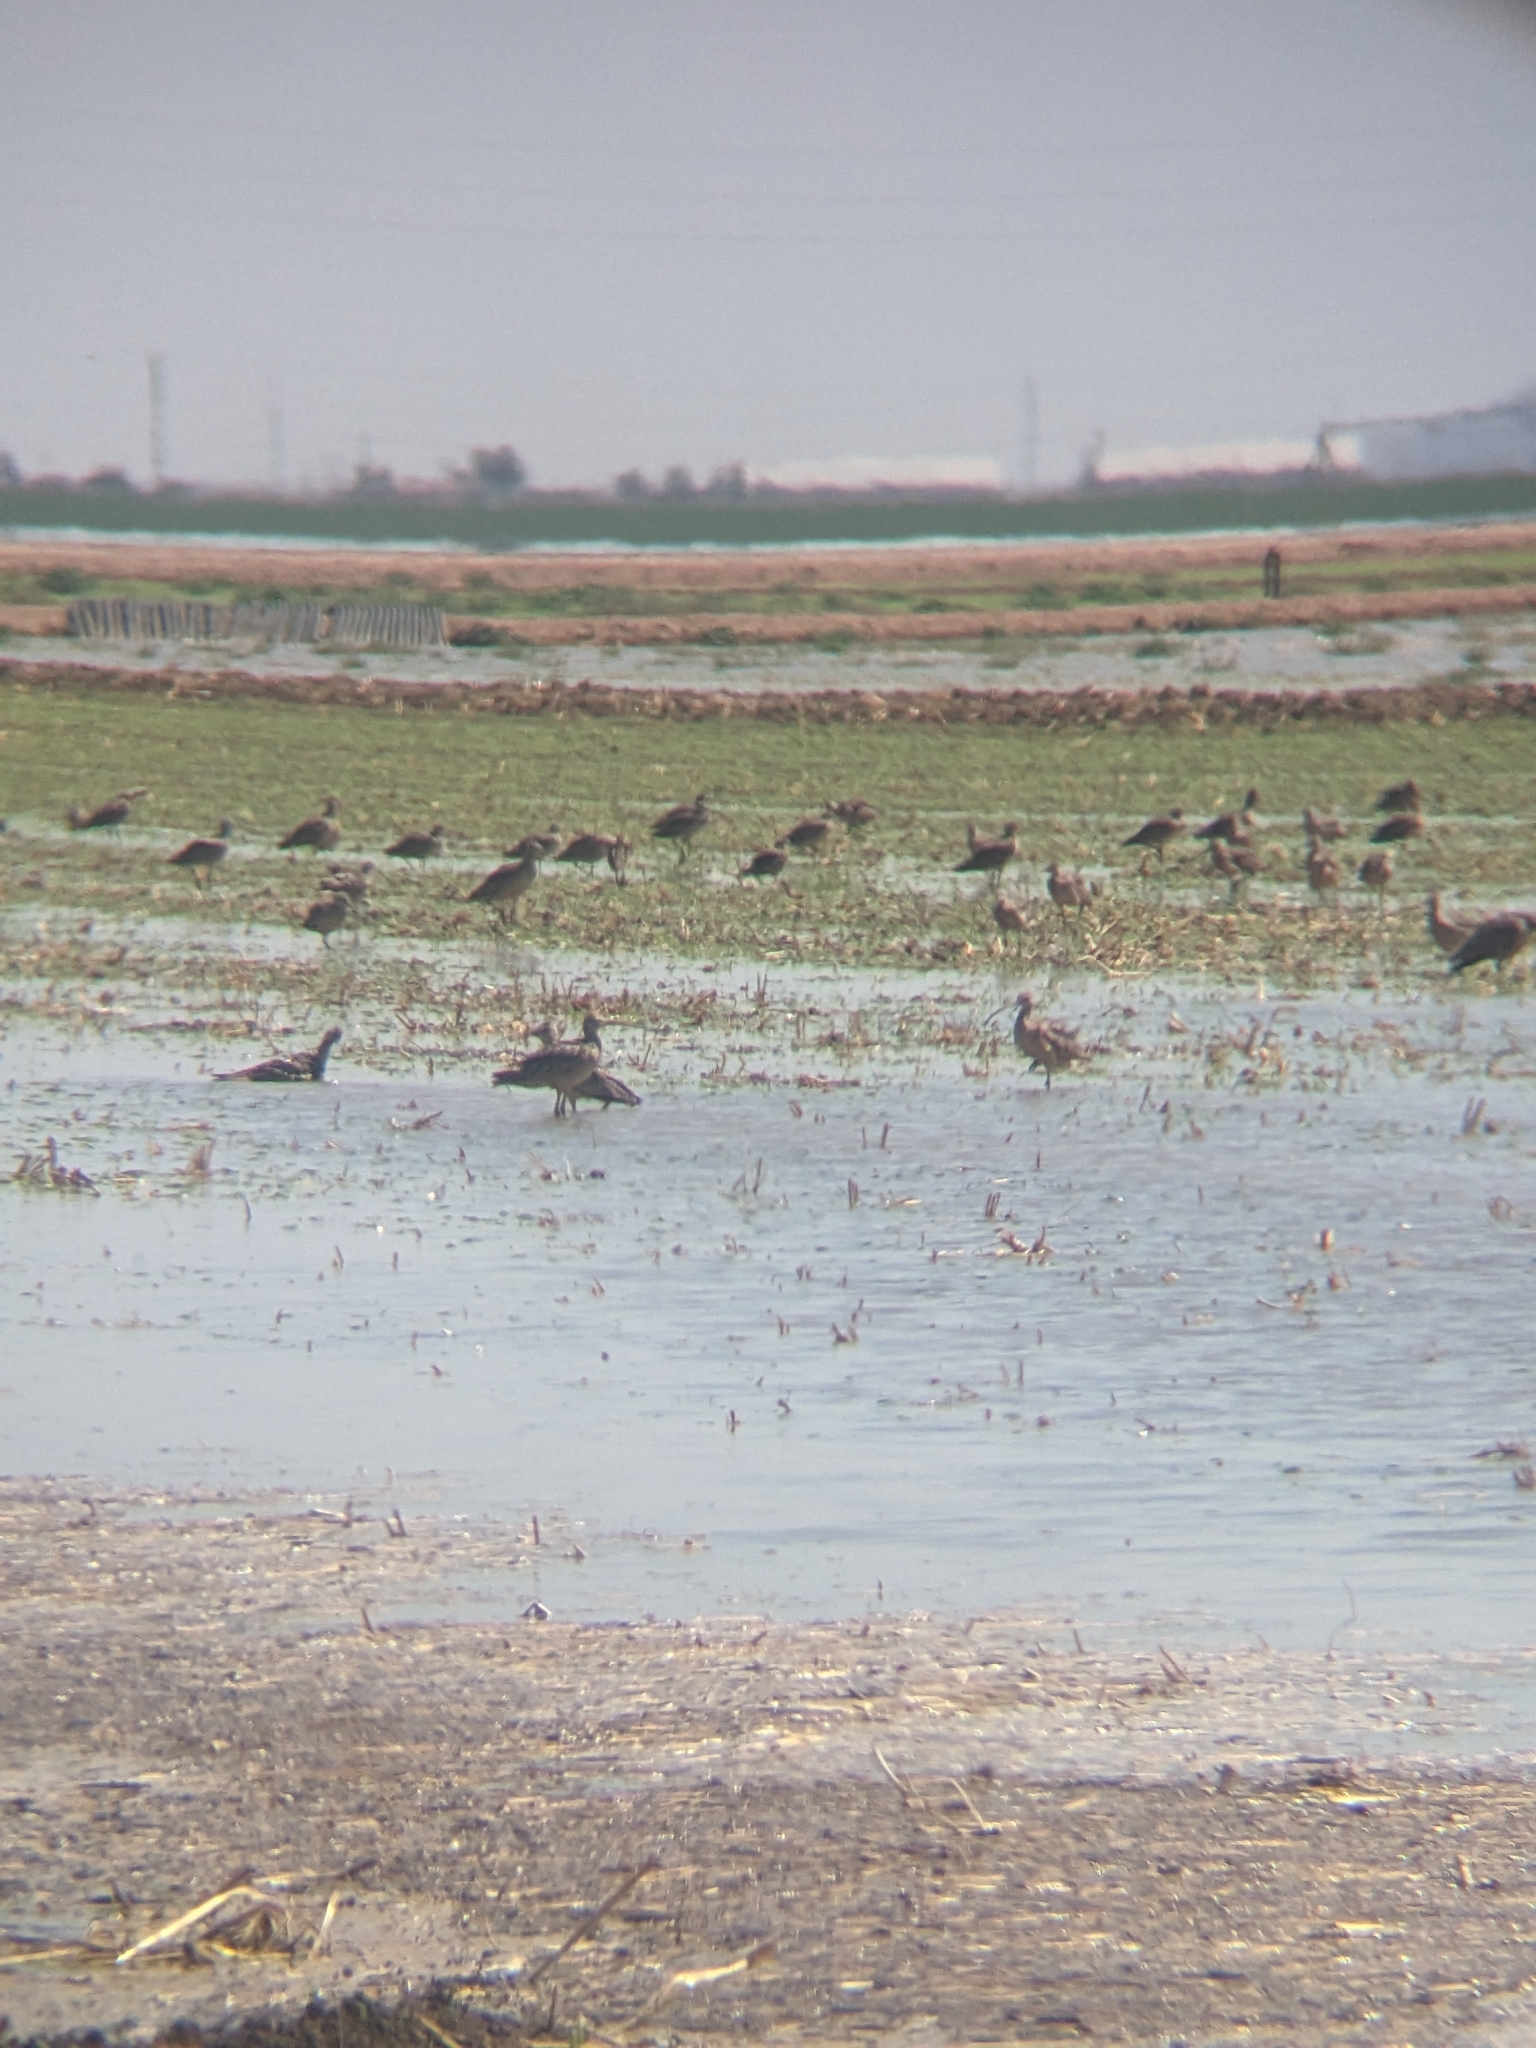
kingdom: Animalia
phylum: Chordata
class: Aves
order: Charadriiformes
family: Scolopacidae
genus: Numenius
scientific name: Numenius americanus
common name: Long-billed curlew
